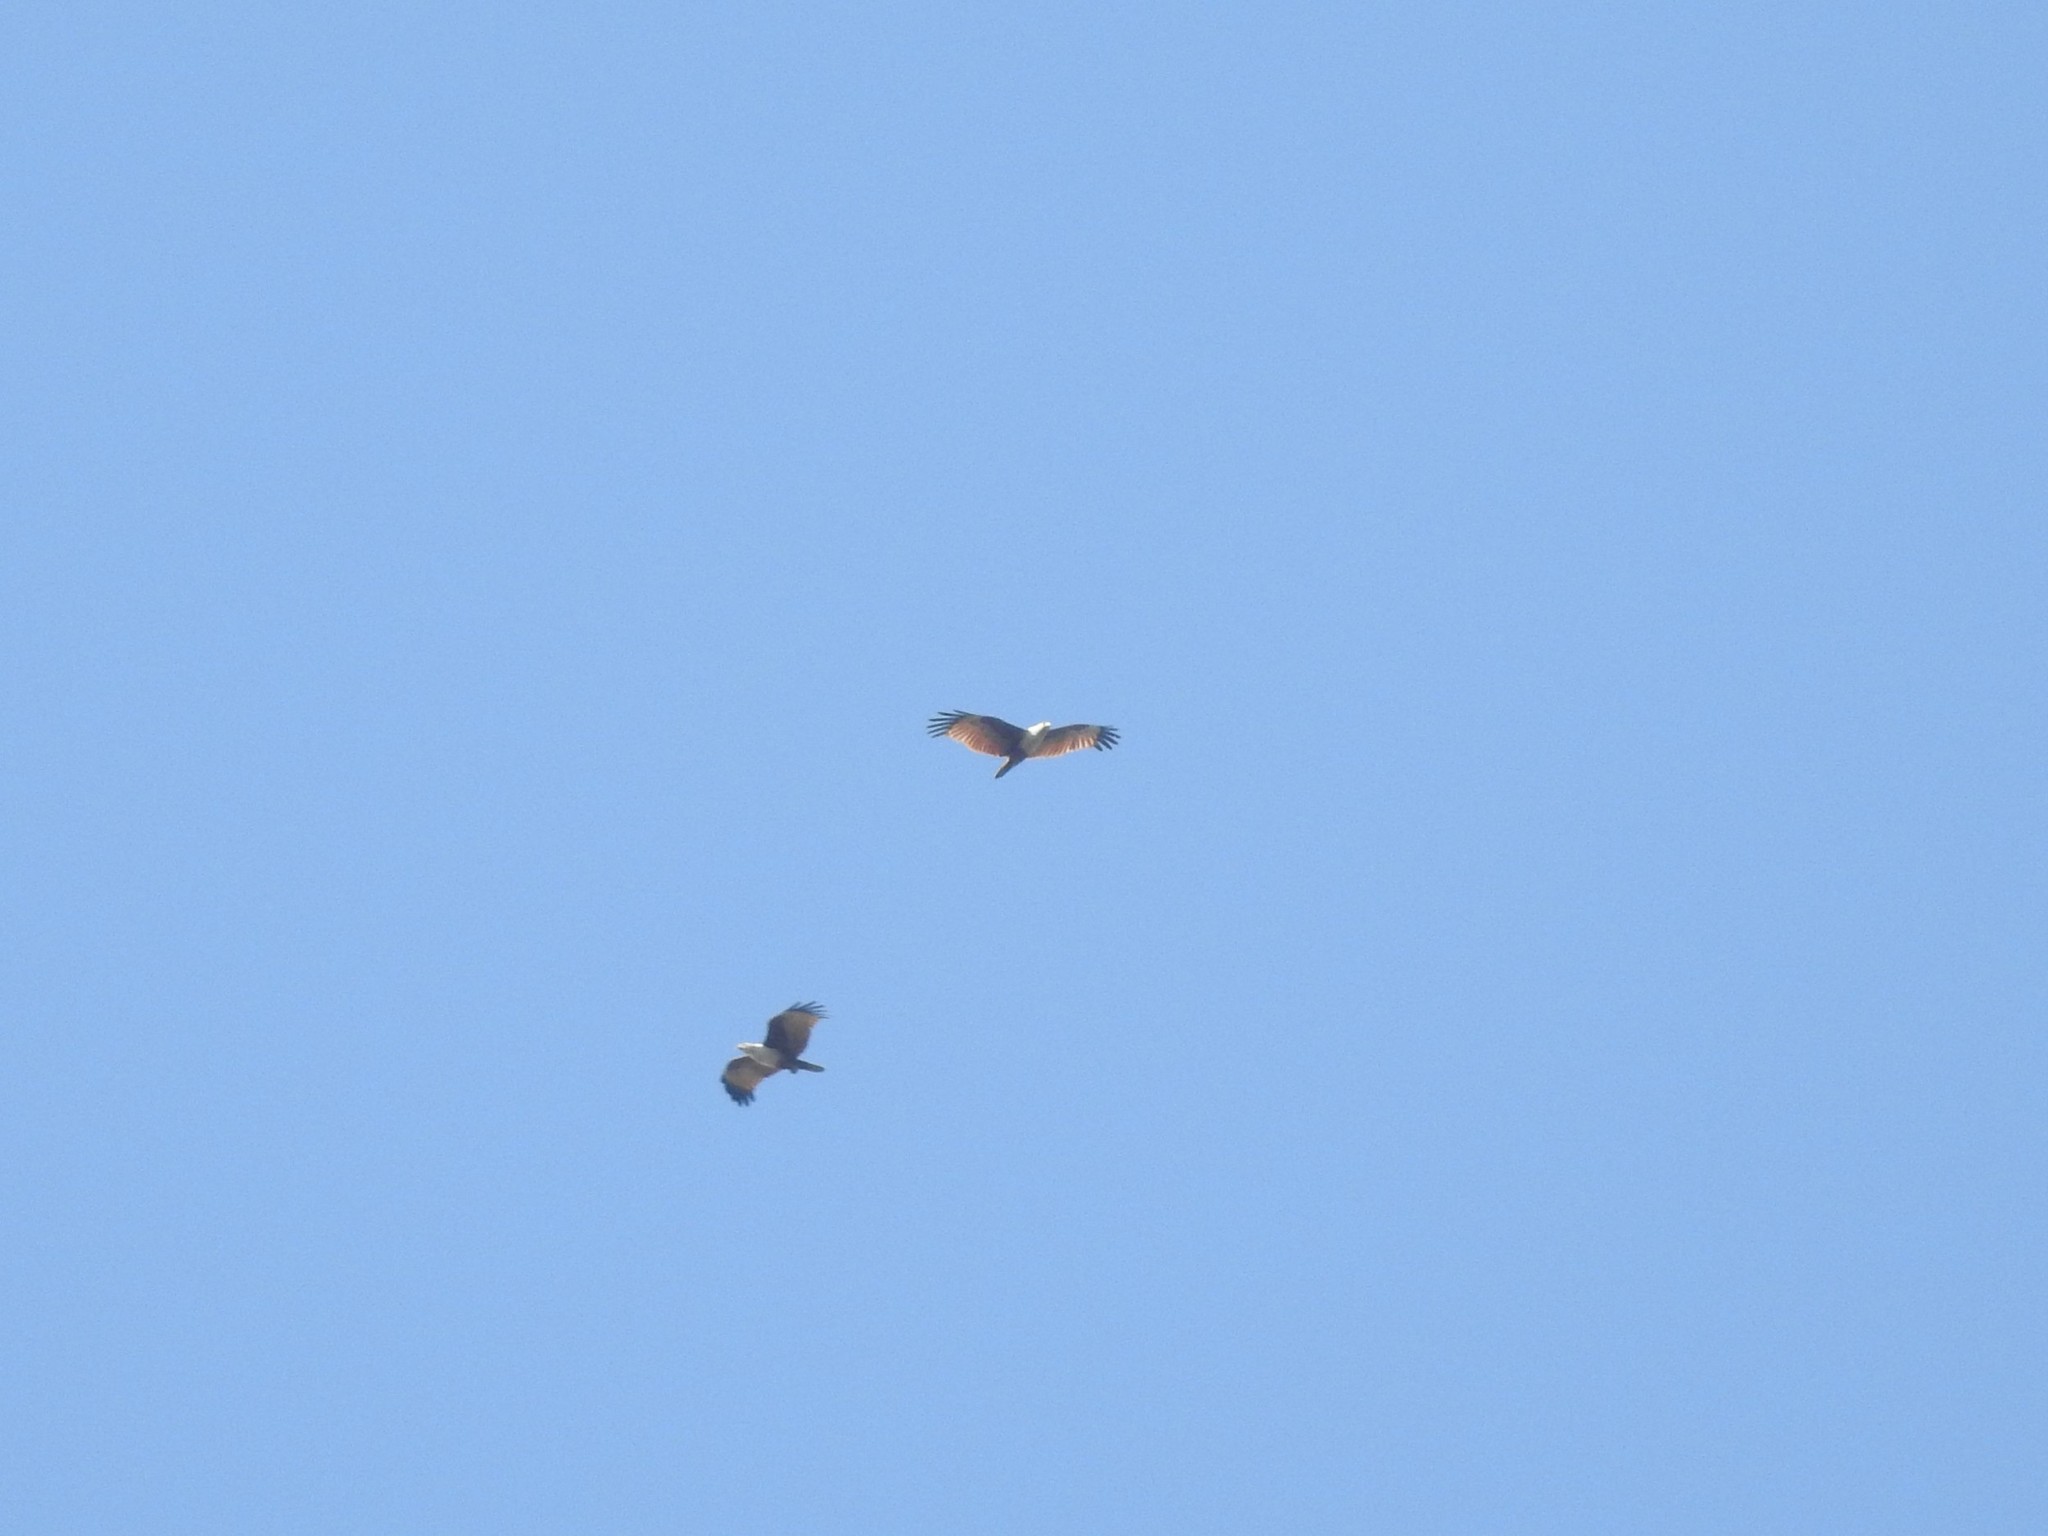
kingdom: Animalia
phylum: Chordata
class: Aves
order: Accipitriformes
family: Accipitridae
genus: Haliastur
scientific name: Haliastur indus
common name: Brahminy kite
